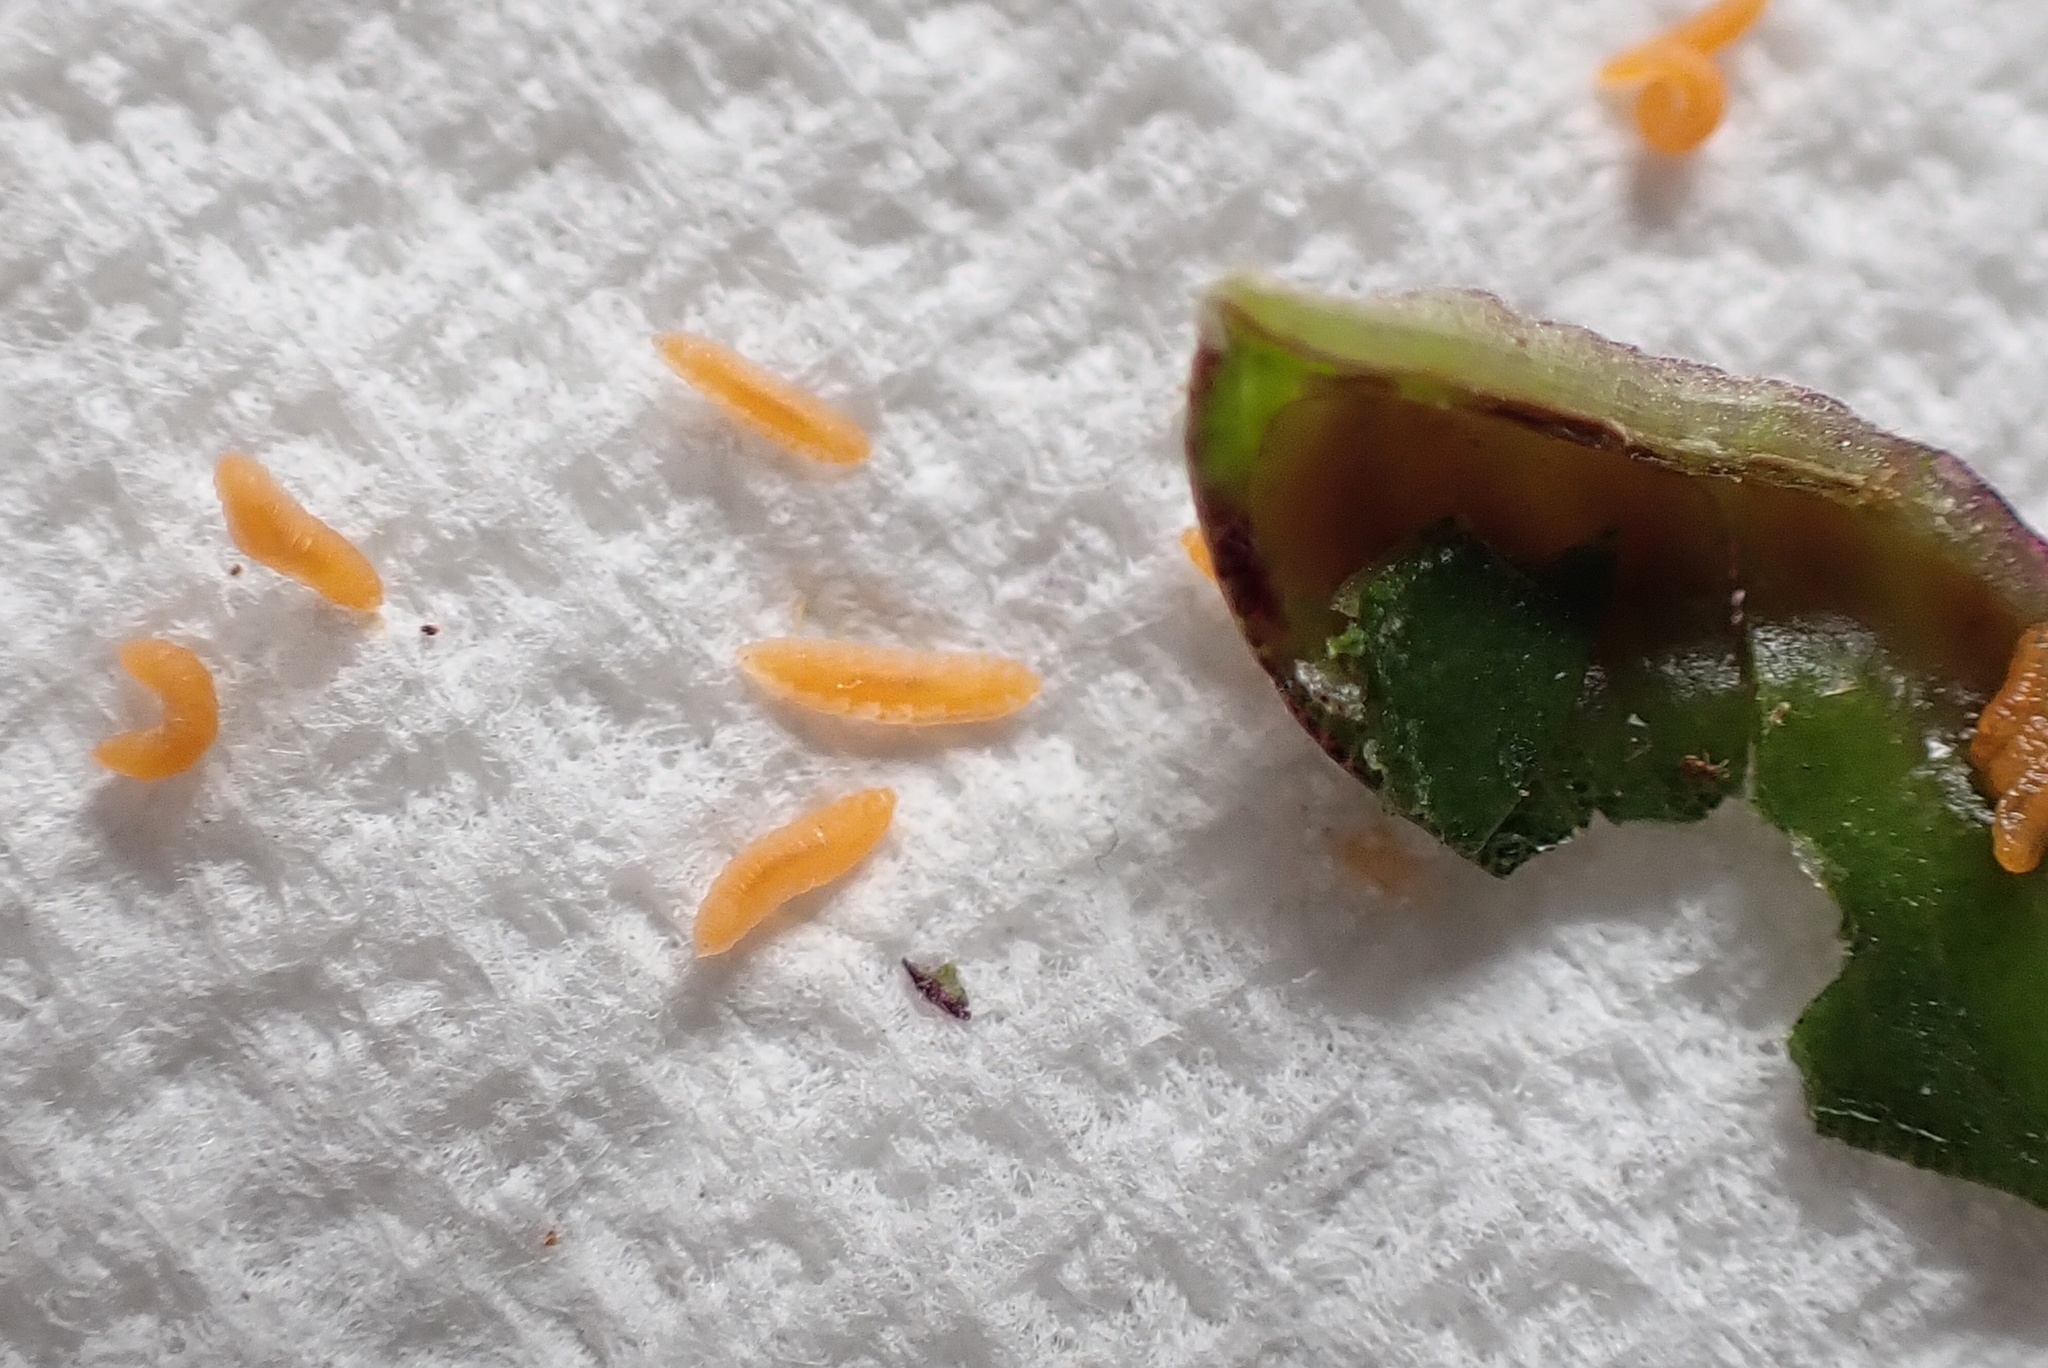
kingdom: Animalia
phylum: Arthropoda
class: Insecta
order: Diptera
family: Cecidomyiidae
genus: Contarinia
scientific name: Contarinia
